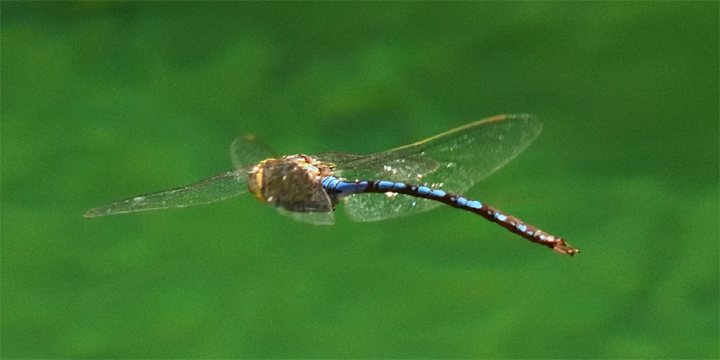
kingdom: Animalia
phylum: Arthropoda
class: Insecta
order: Odonata
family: Aeshnidae
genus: Anax
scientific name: Anax walsinghami
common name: Giant darner
